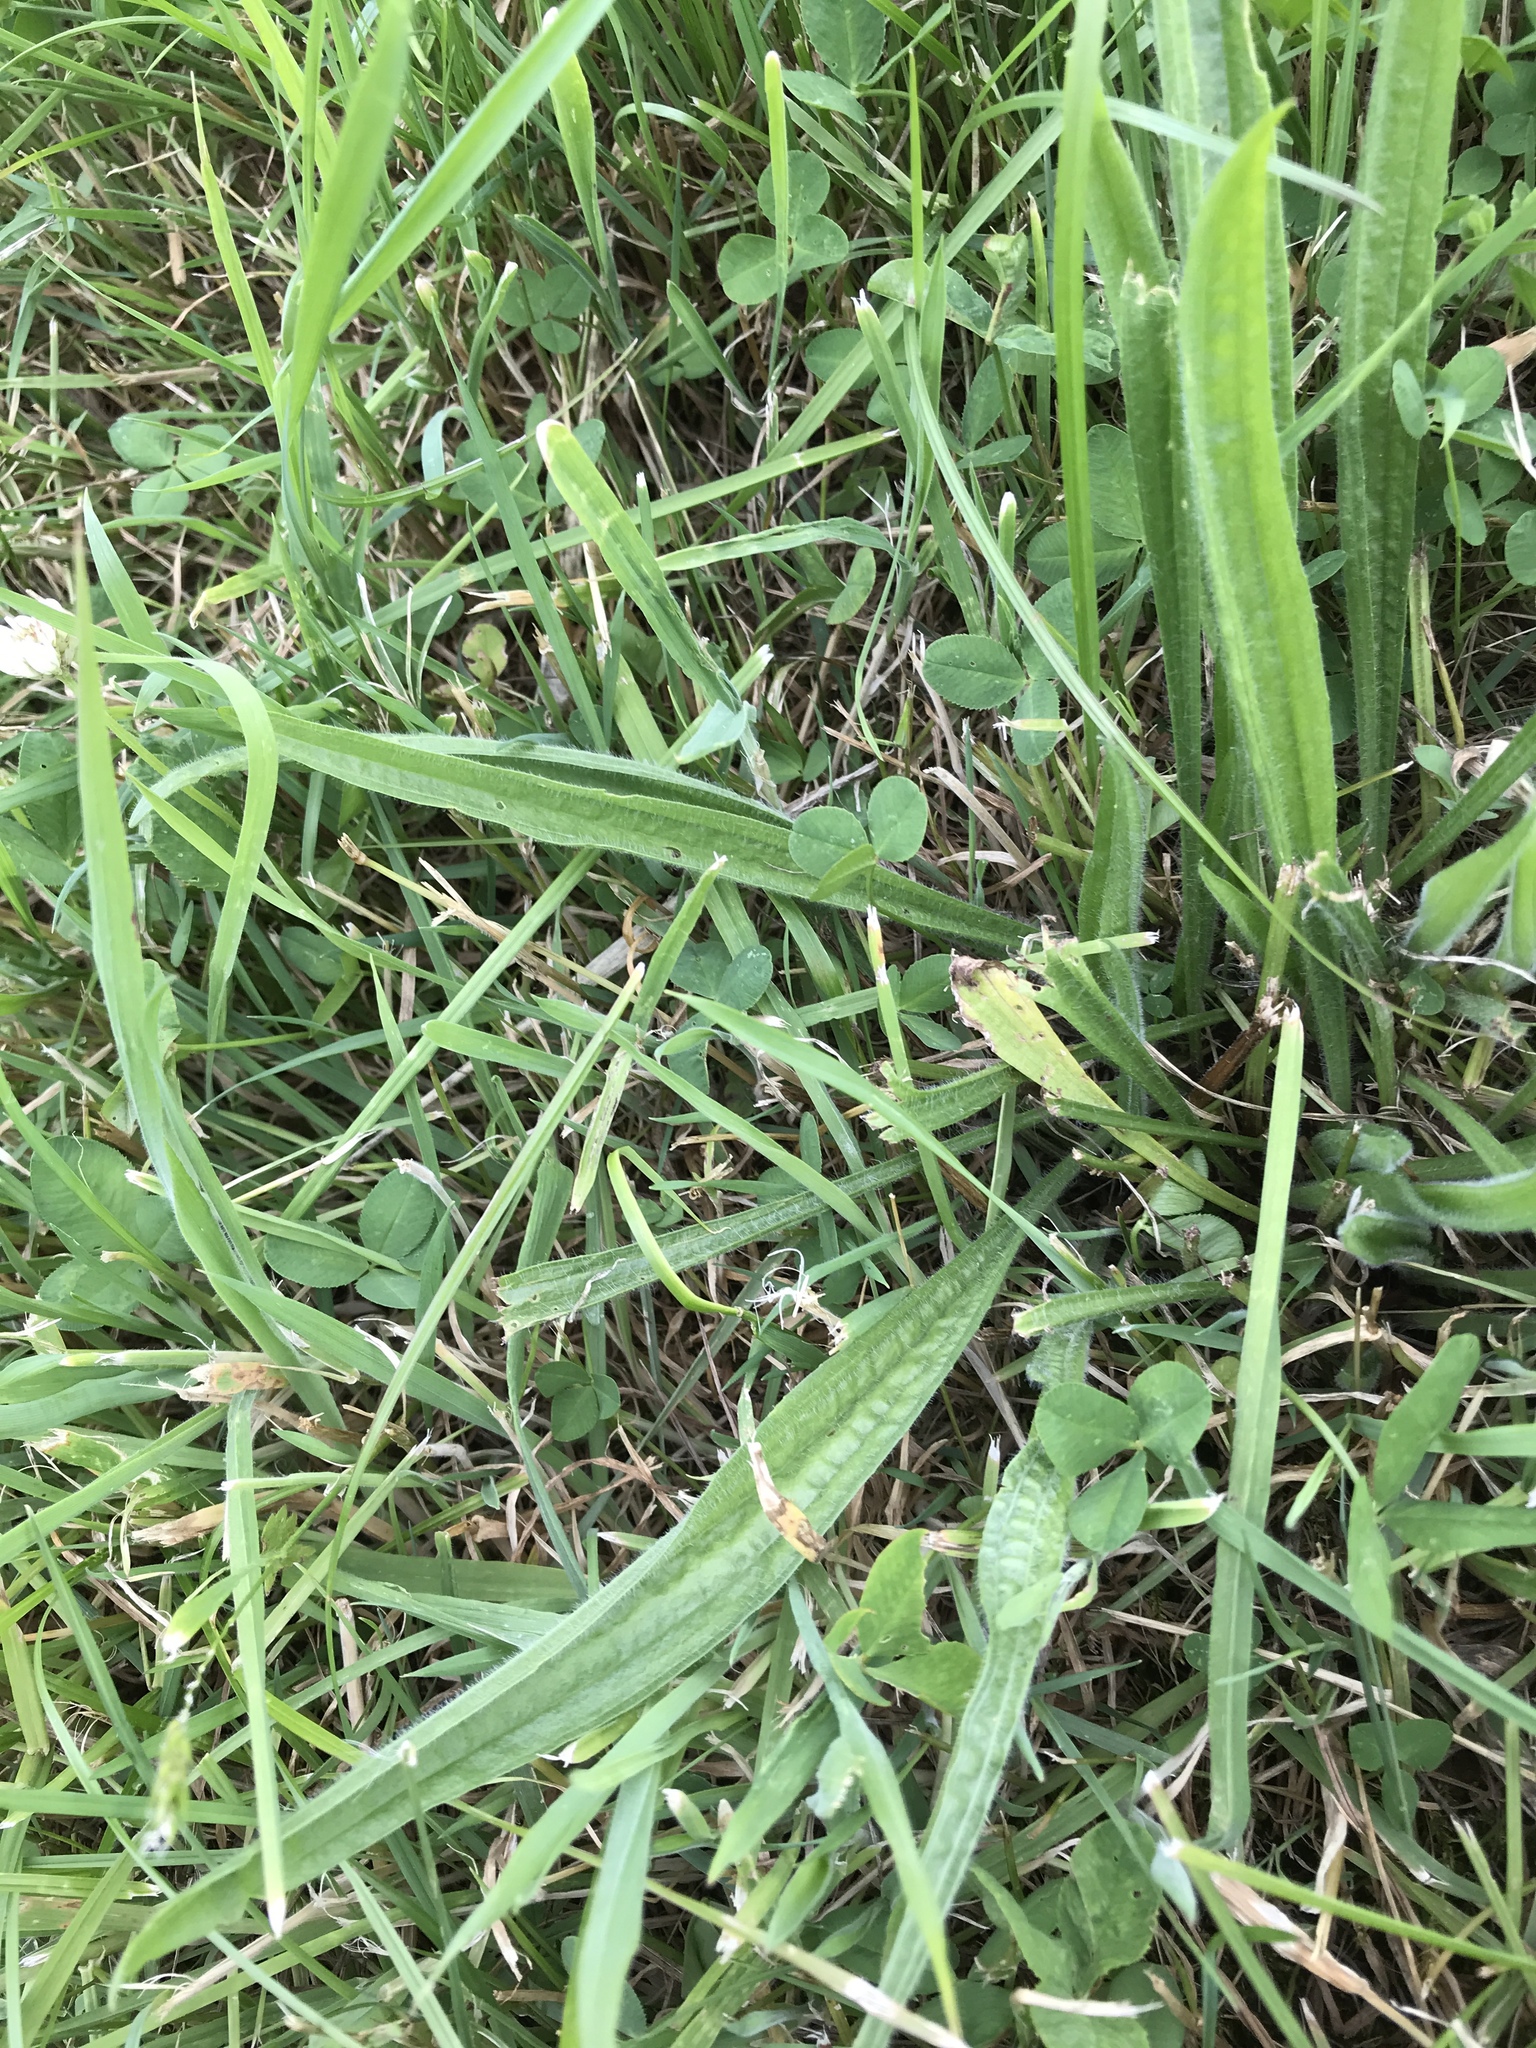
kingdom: Plantae
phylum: Tracheophyta
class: Magnoliopsida
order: Lamiales
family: Plantaginaceae
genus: Plantago
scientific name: Plantago lanceolata
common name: Ribwort plantain
